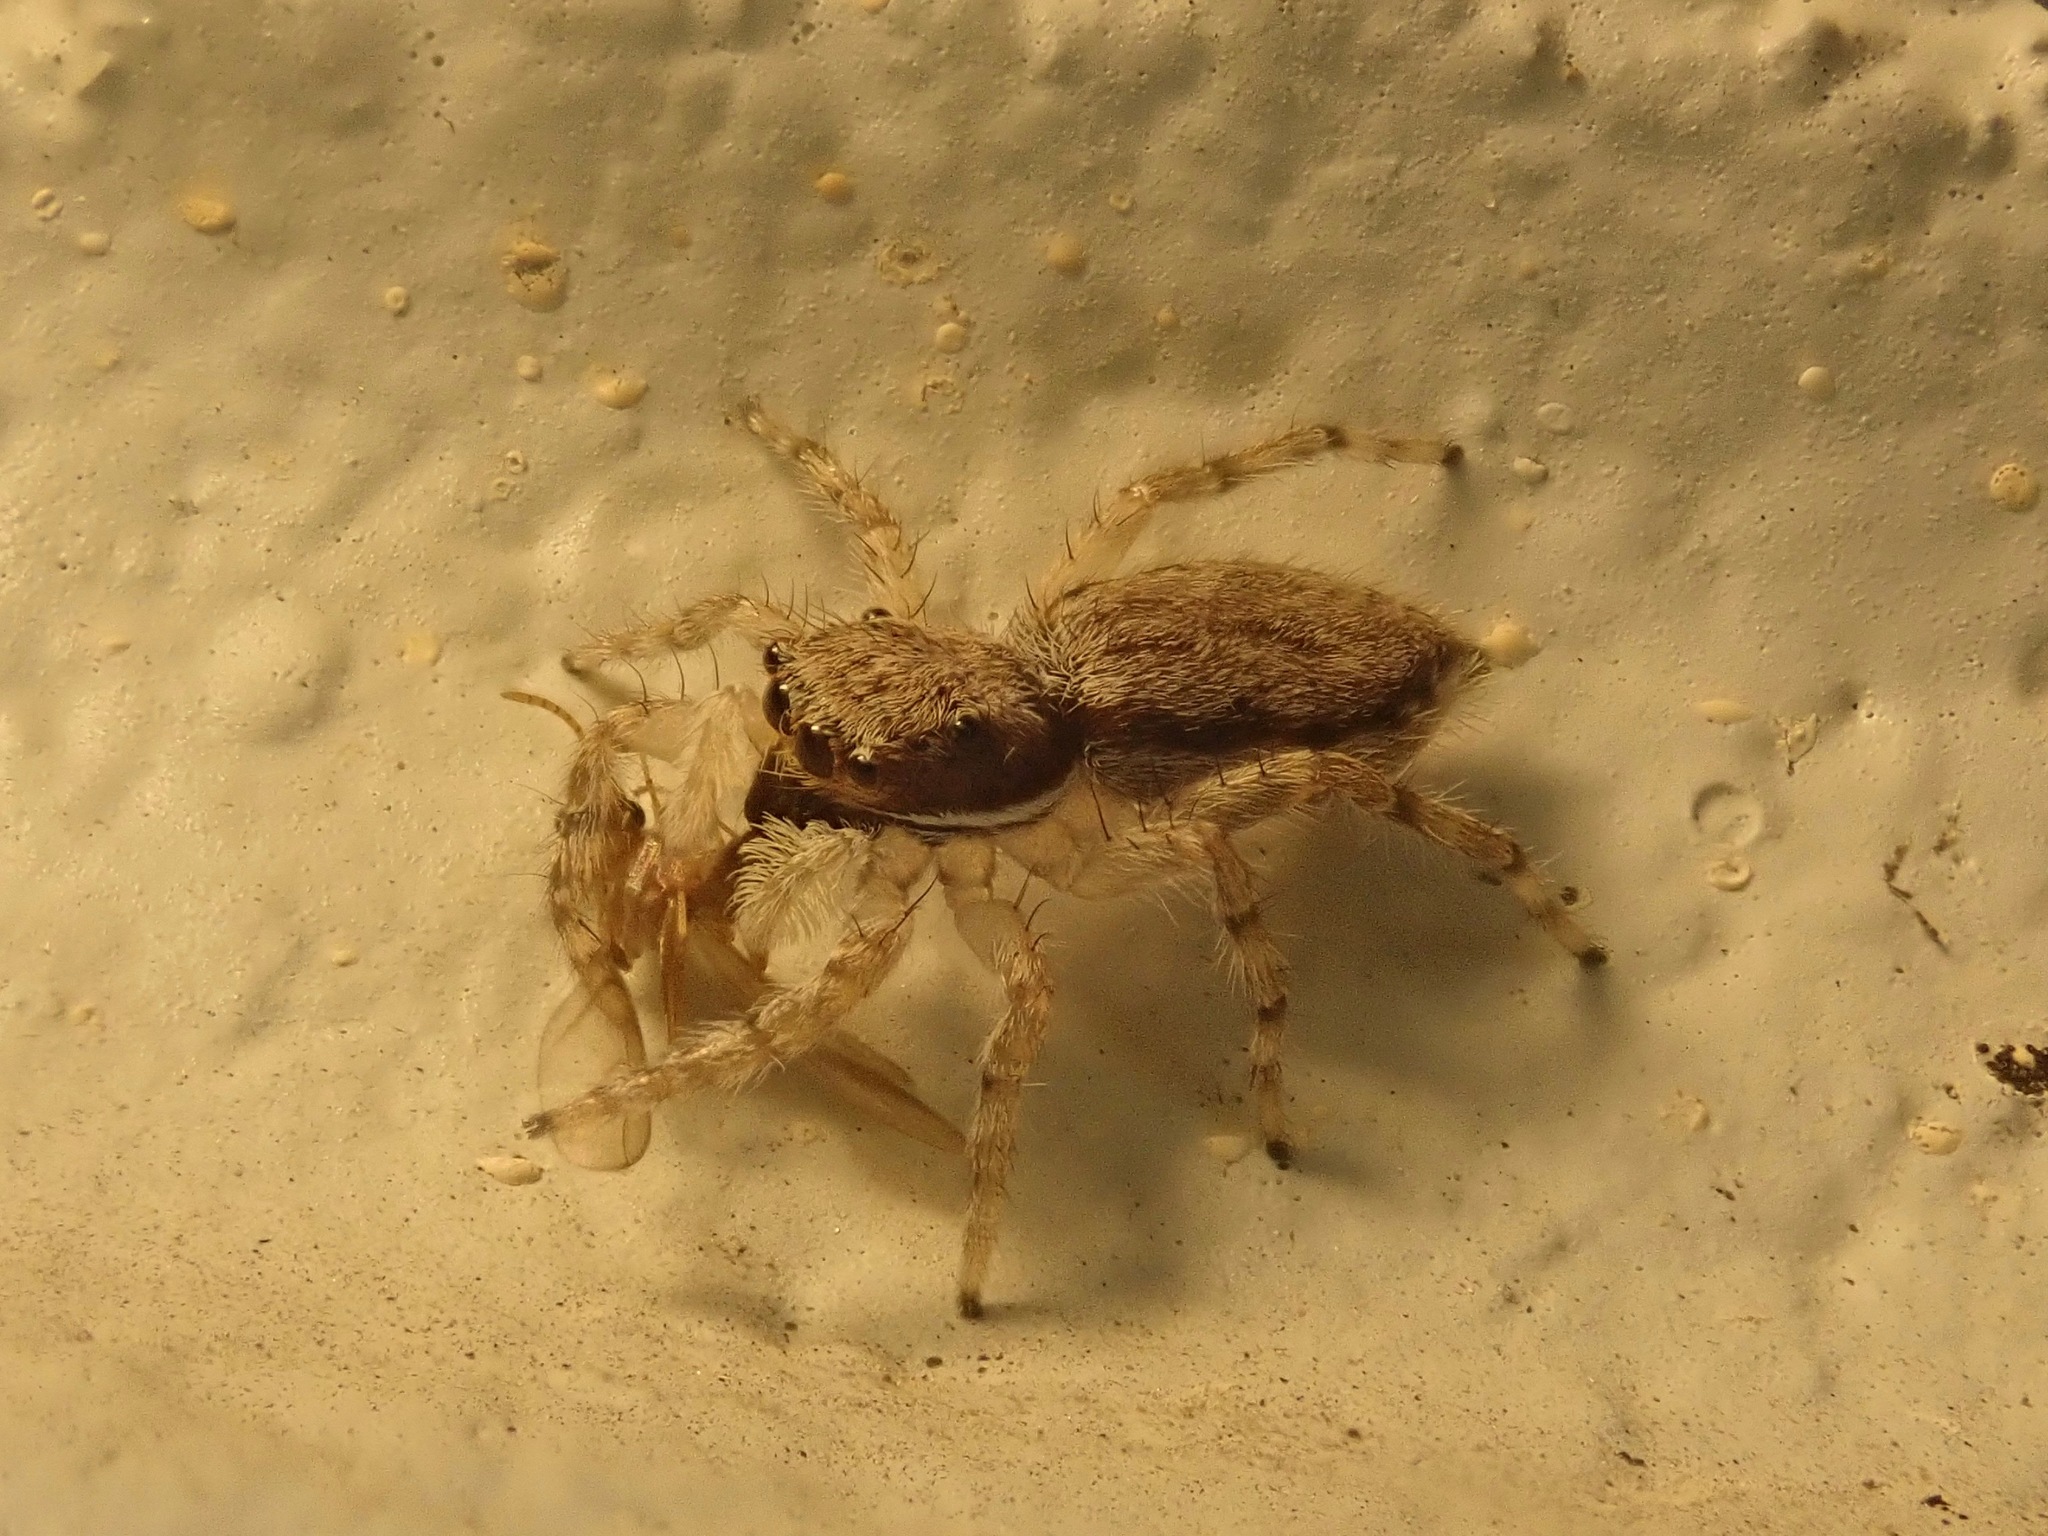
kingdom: Animalia
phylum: Arthropoda
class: Arachnida
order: Araneae
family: Salticidae
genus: Menemerus
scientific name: Menemerus bivittatus
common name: Gray wall jumper
